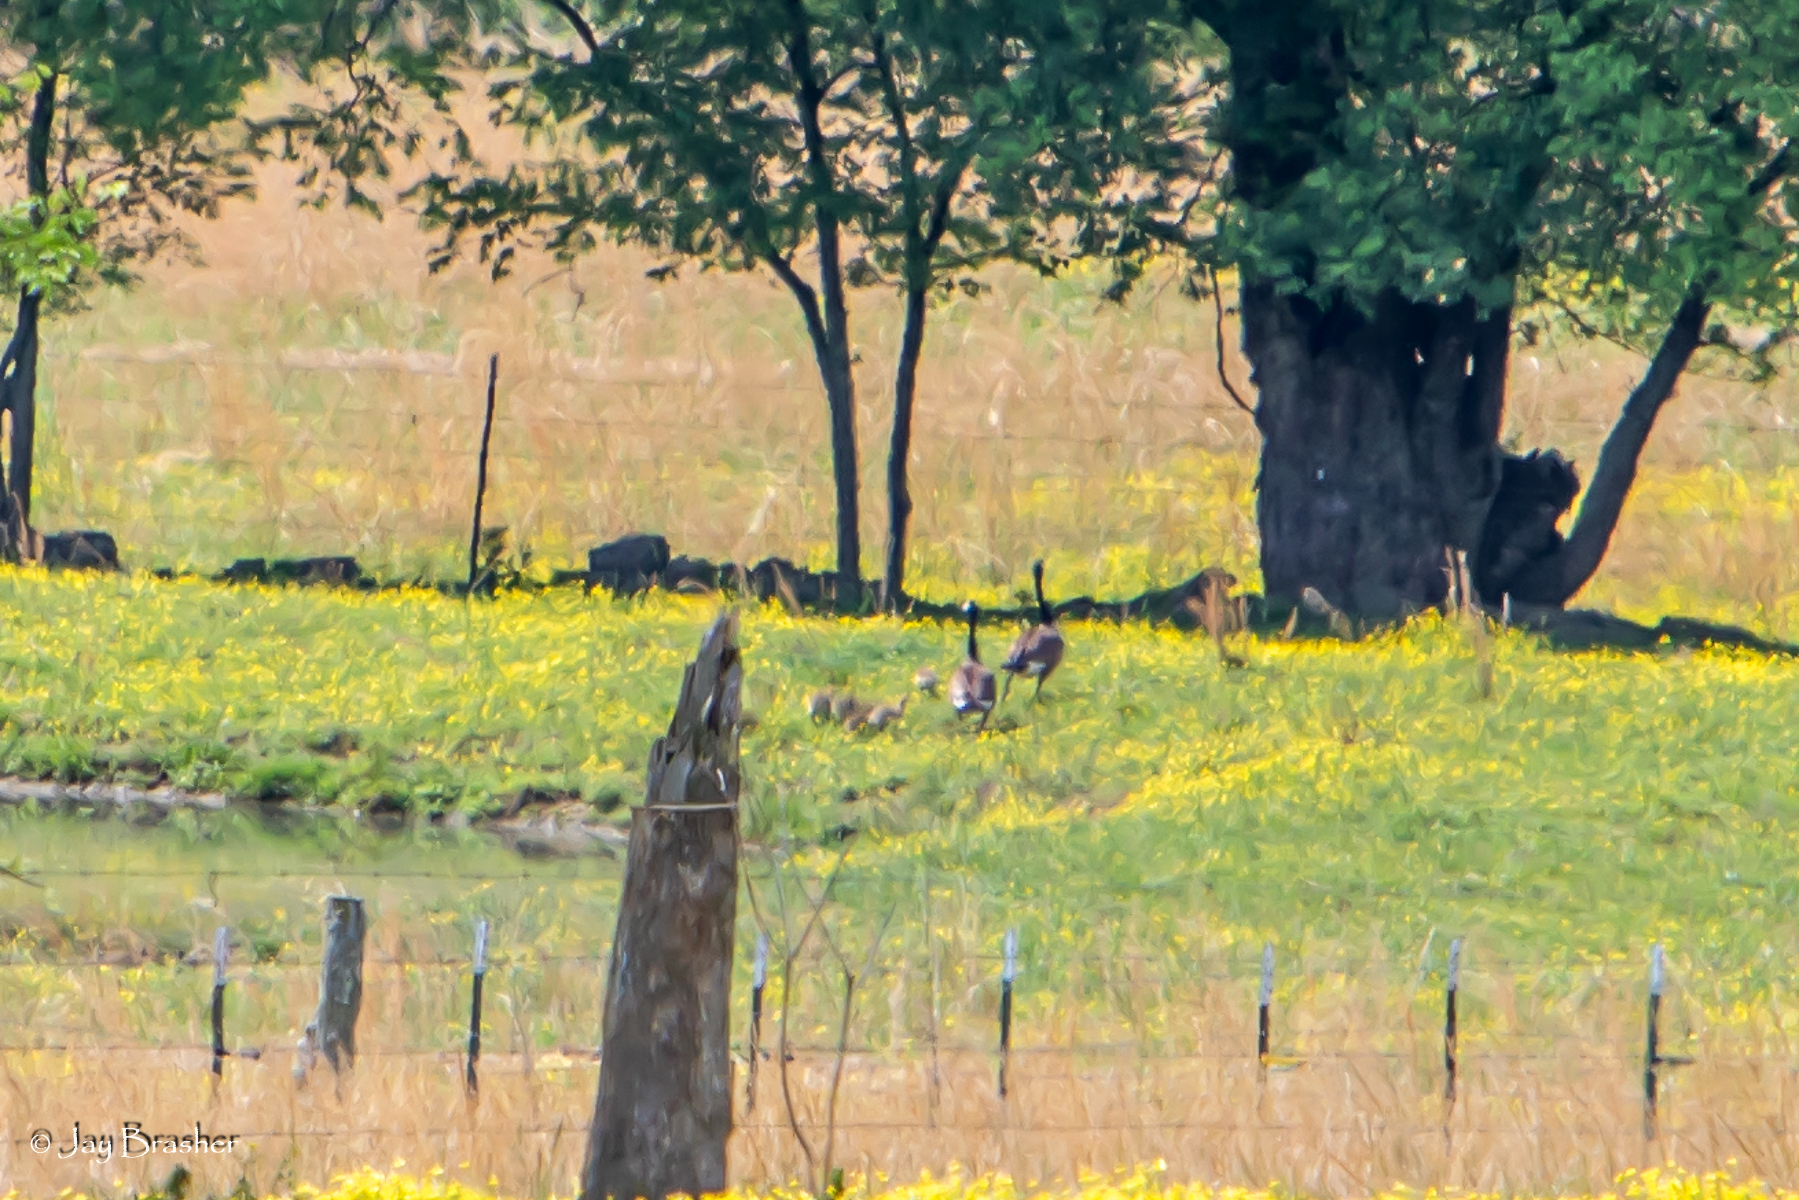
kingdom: Animalia
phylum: Chordata
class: Aves
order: Anseriformes
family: Anatidae
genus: Branta
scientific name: Branta canadensis
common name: Canada goose
